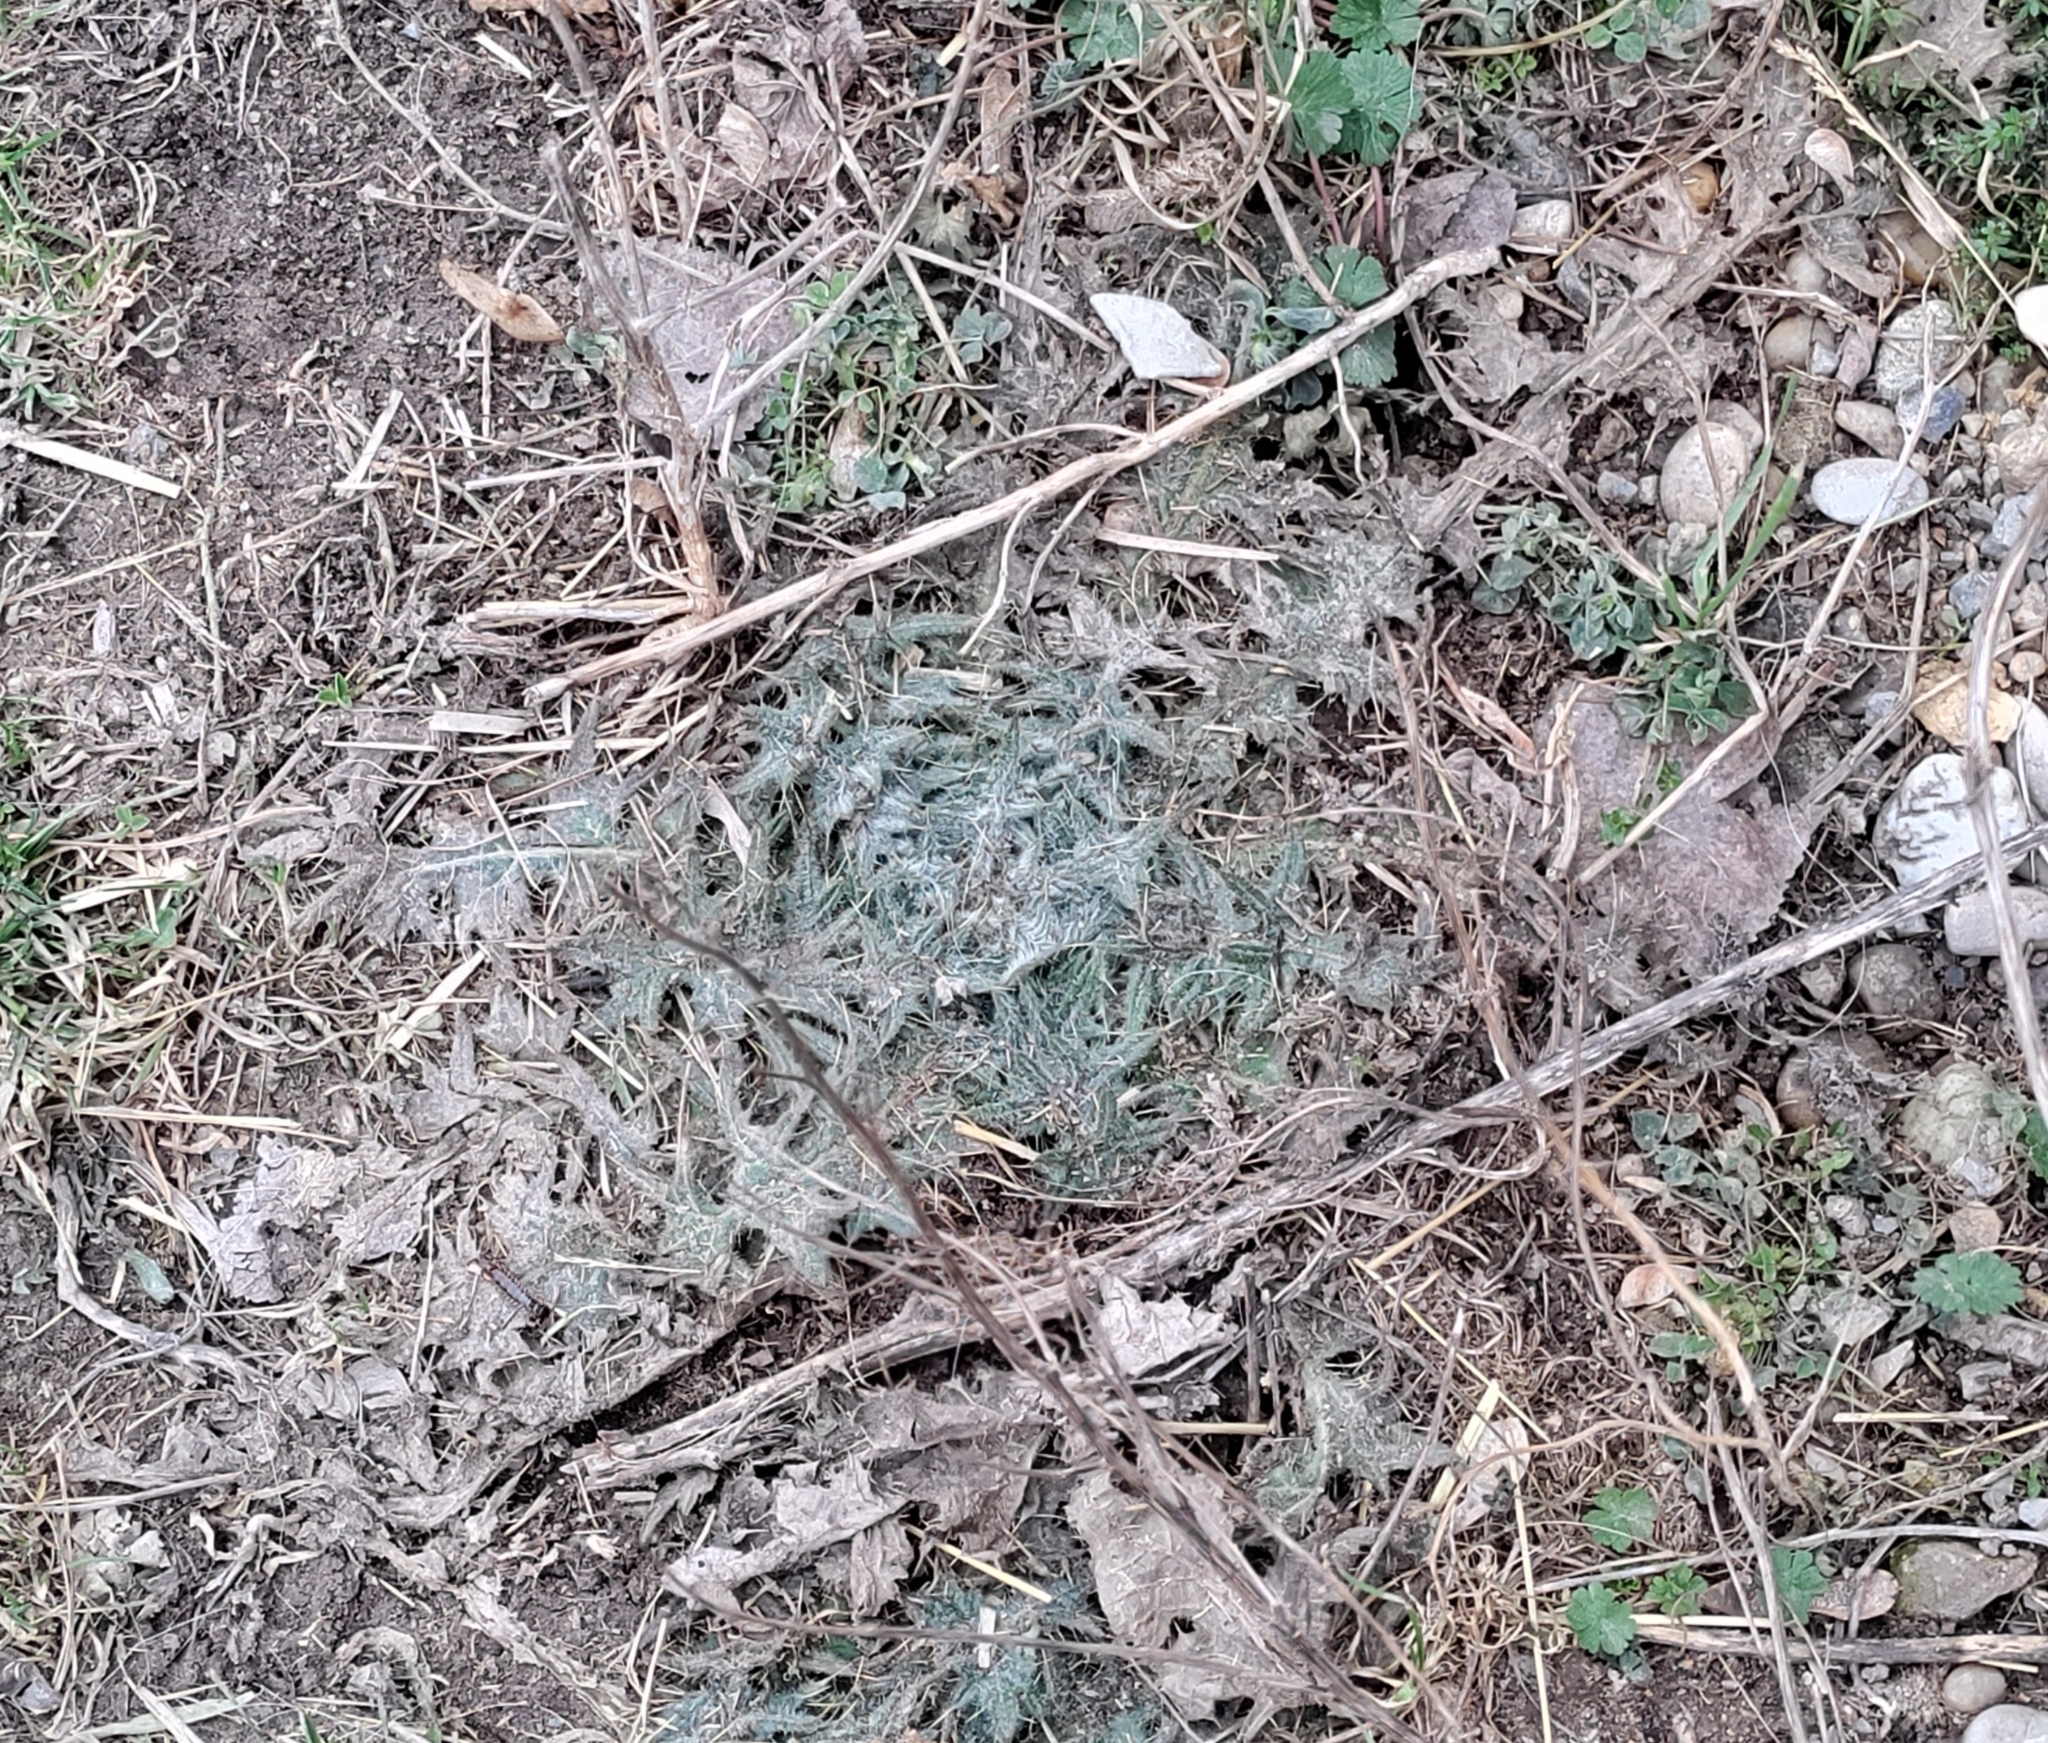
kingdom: Plantae
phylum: Tracheophyta
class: Magnoliopsida
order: Asterales
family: Asteraceae
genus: Cirsium
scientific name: Cirsium vulgare
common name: Bull thistle
